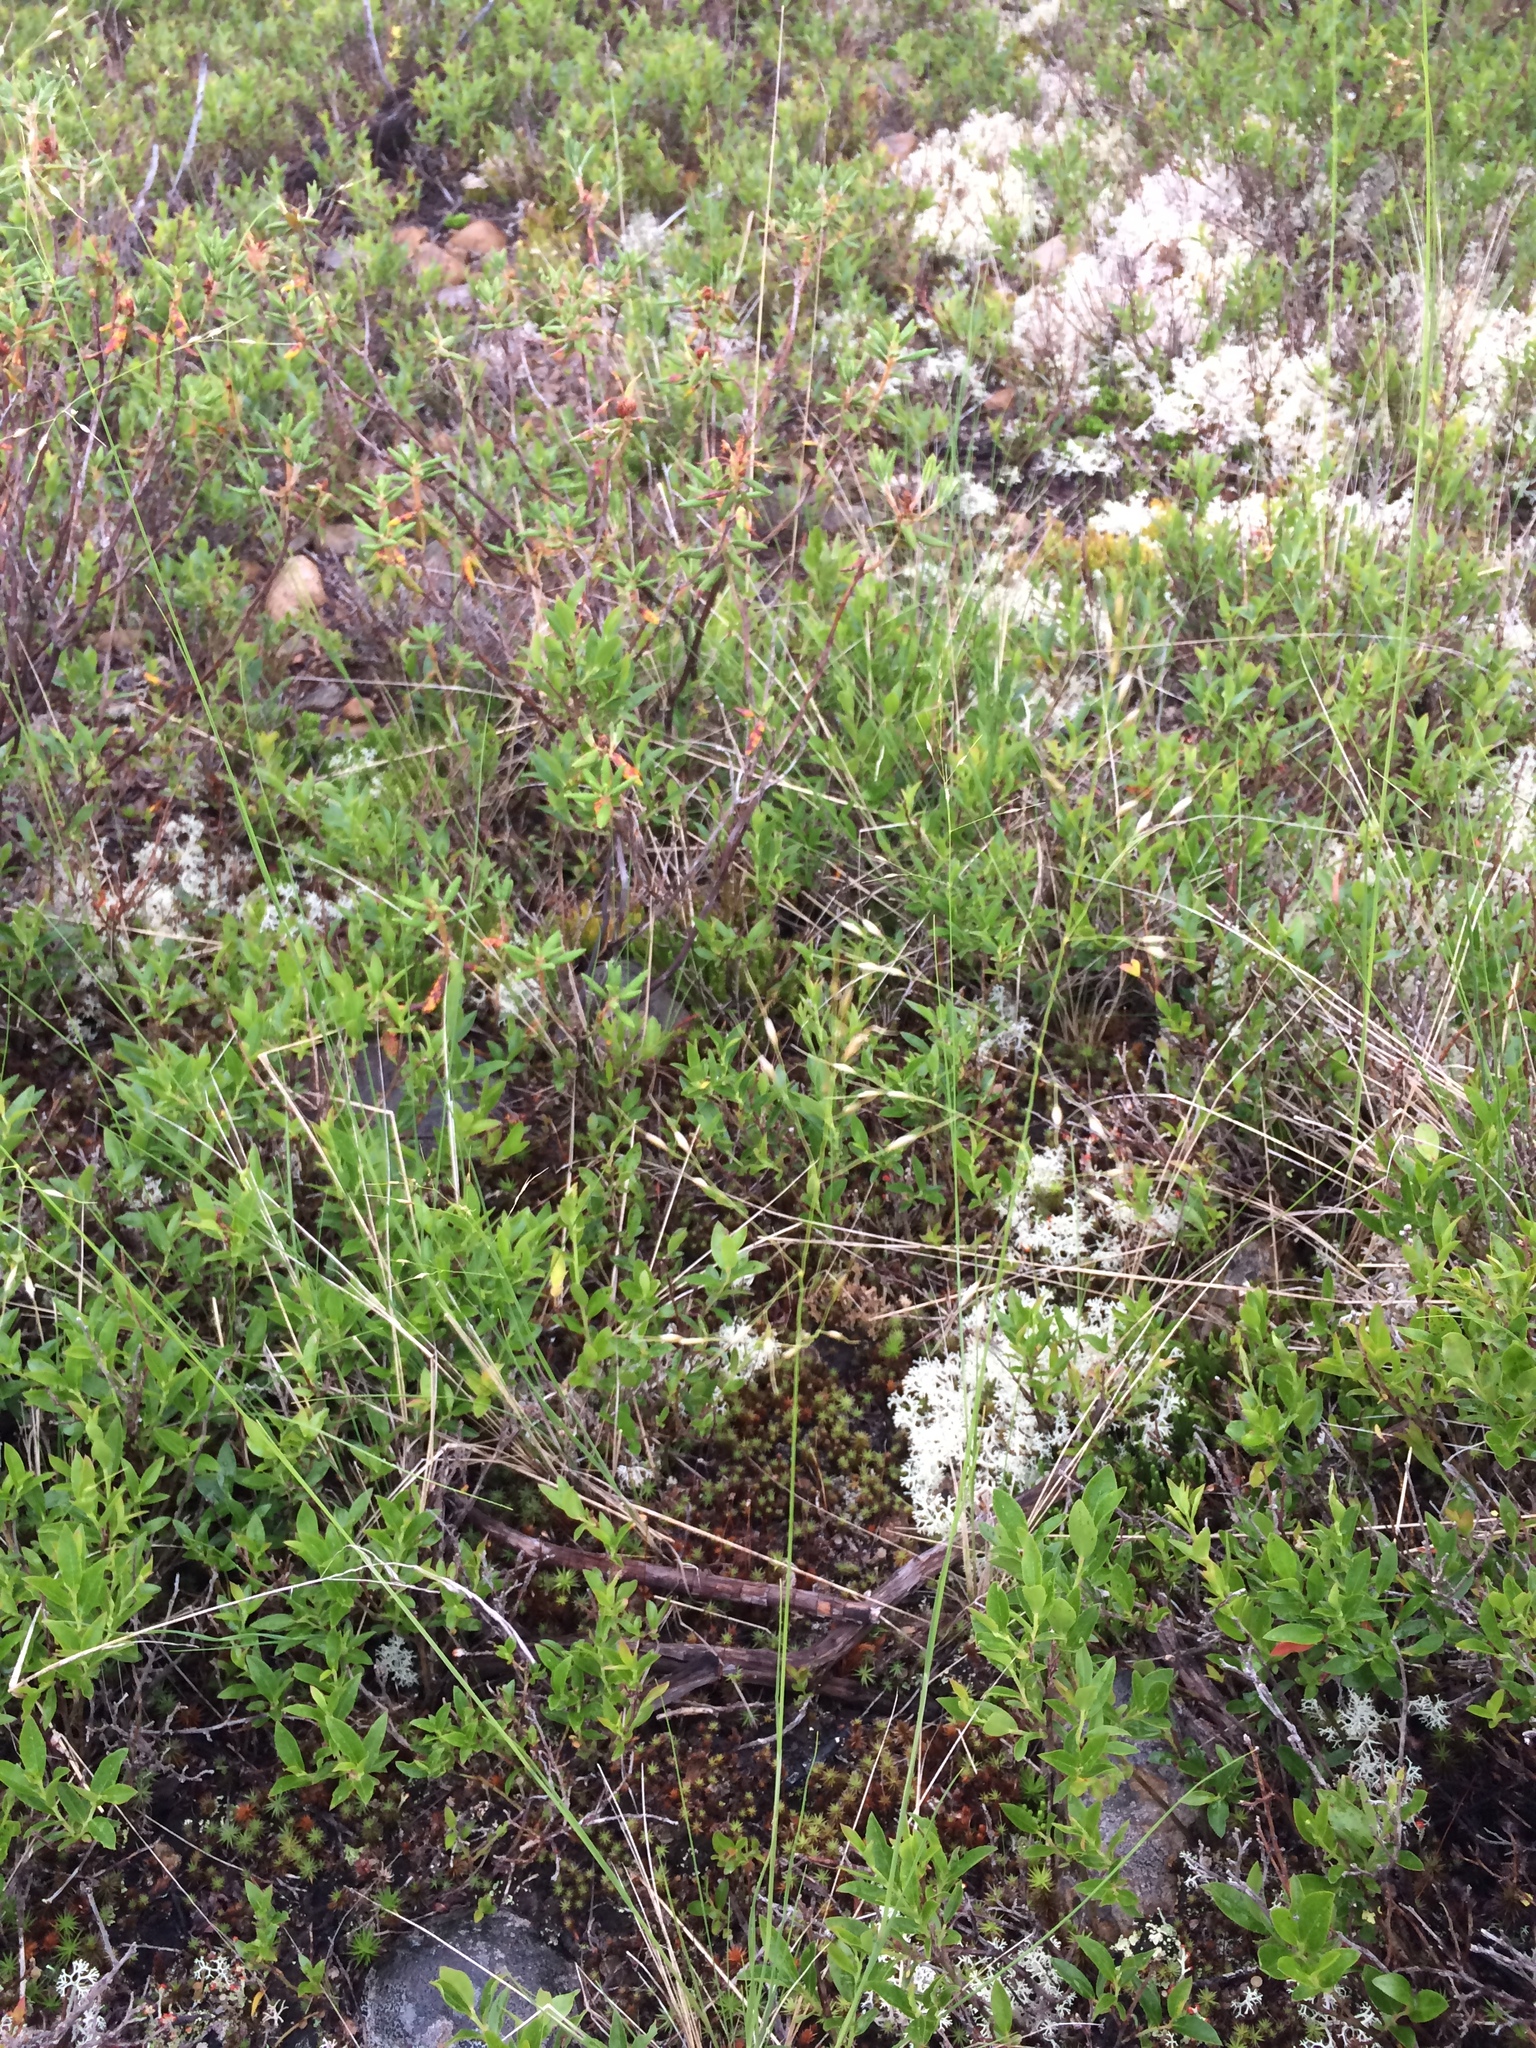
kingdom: Plantae
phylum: Tracheophyta
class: Liliopsida
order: Poales
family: Poaceae
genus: Piptatheropsis
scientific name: Piptatheropsis canadensis
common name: Canada mountain ricegrass
